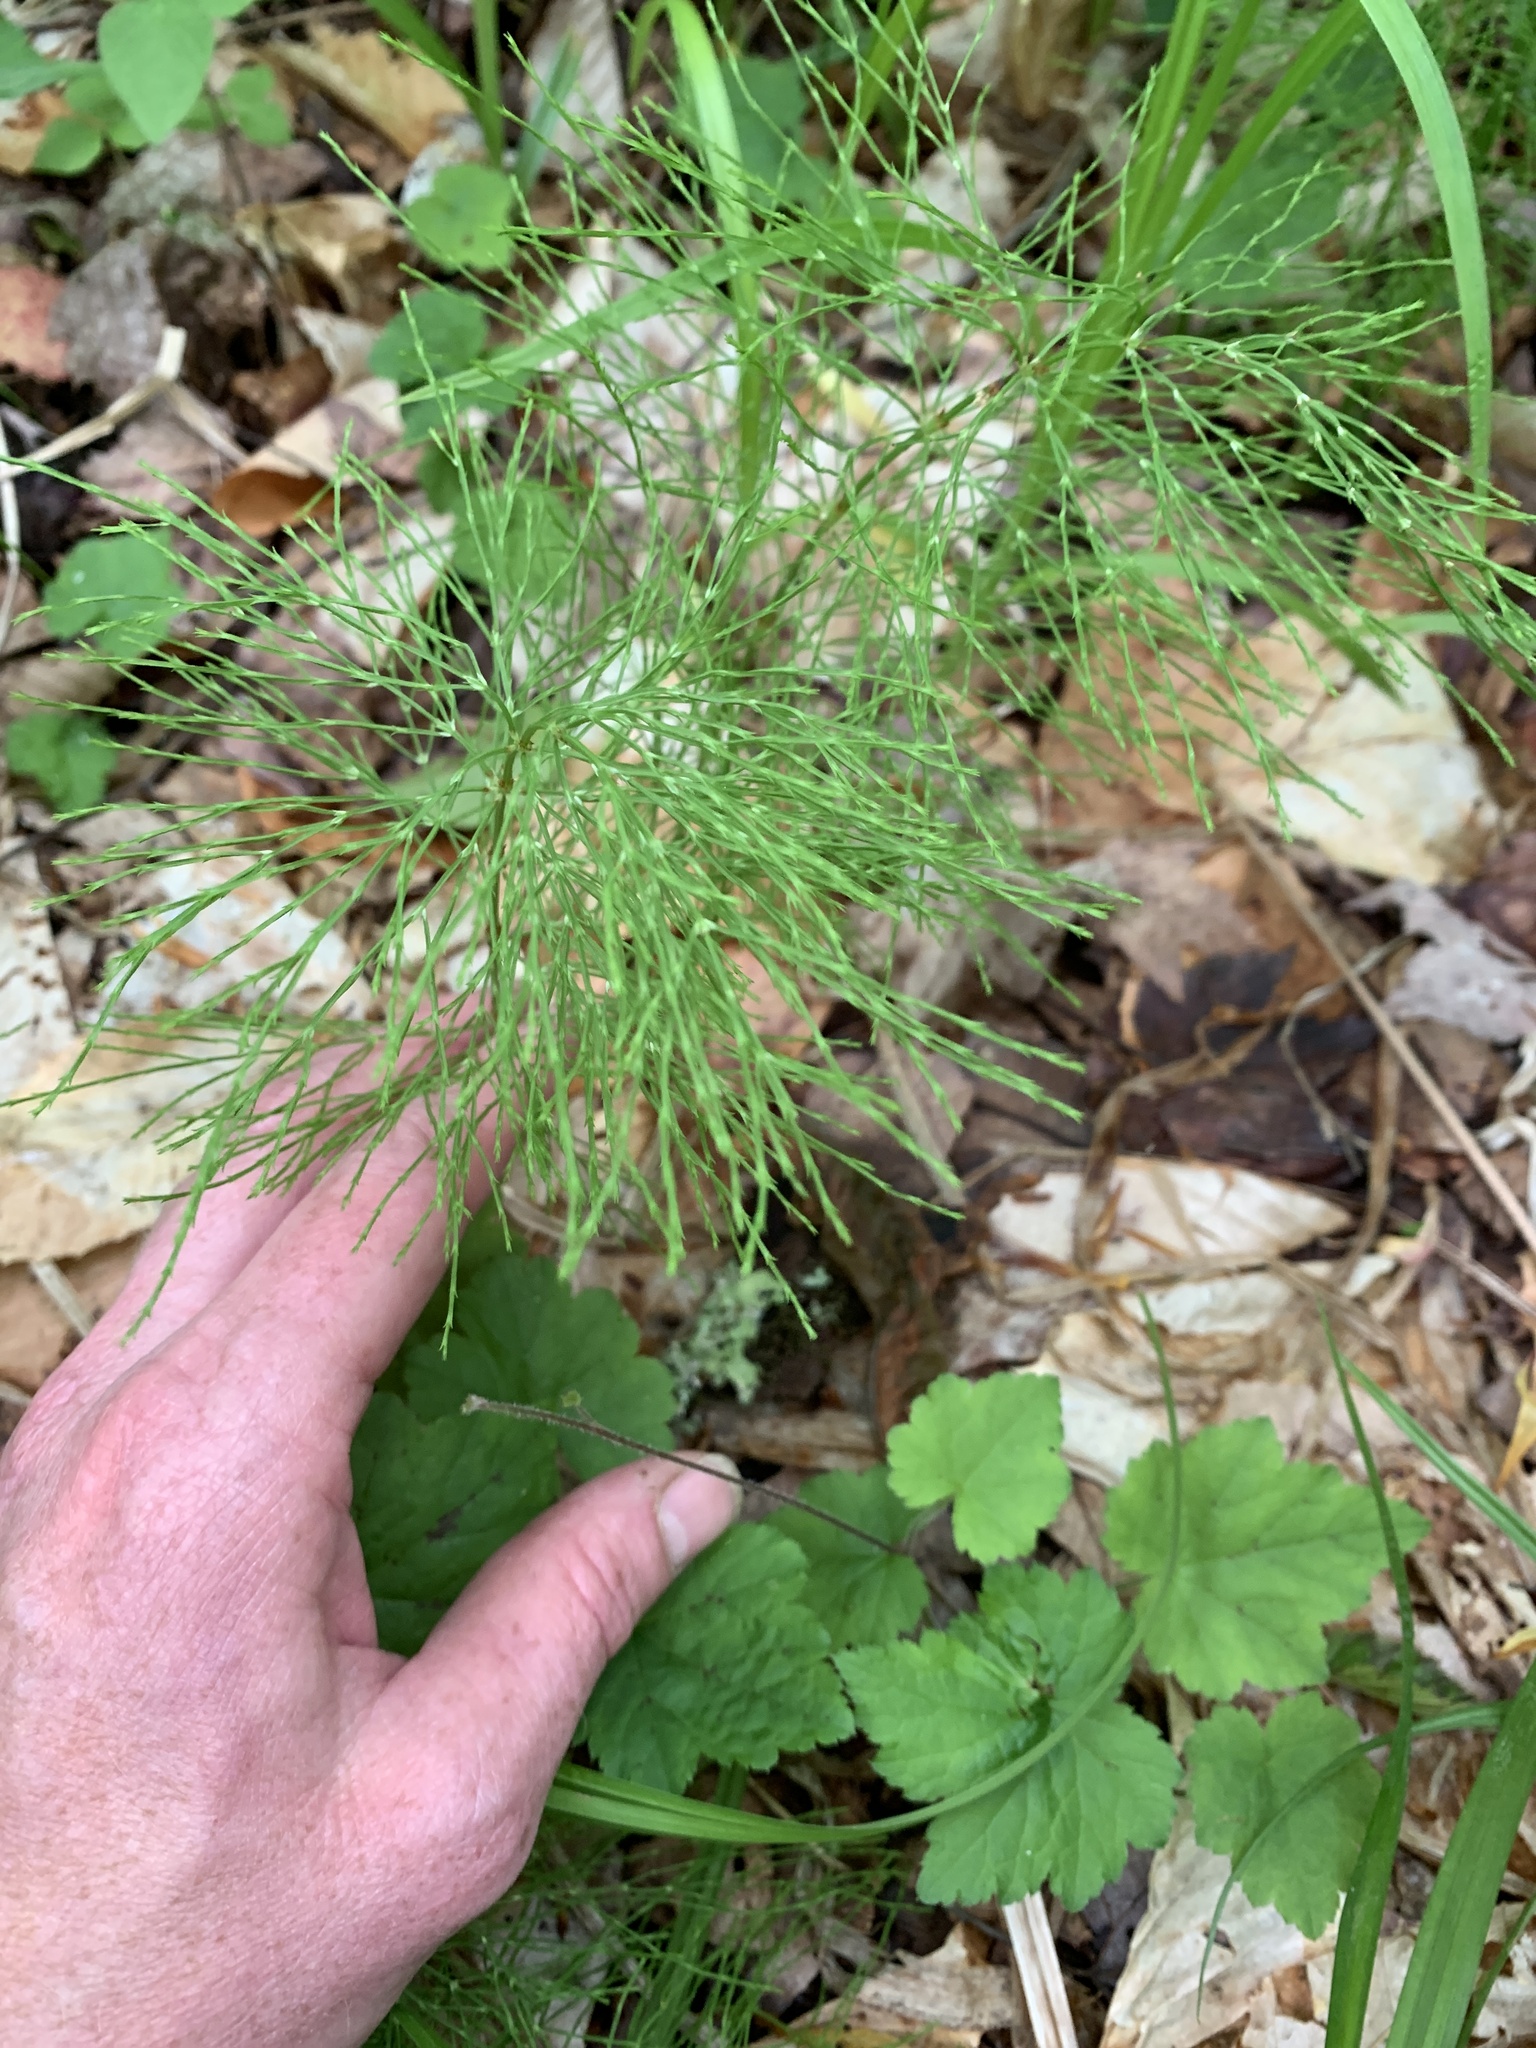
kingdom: Plantae
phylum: Tracheophyta
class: Polypodiopsida
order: Equisetales
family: Equisetaceae
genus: Equisetum
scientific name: Equisetum sylvaticum
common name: Wood horsetail
